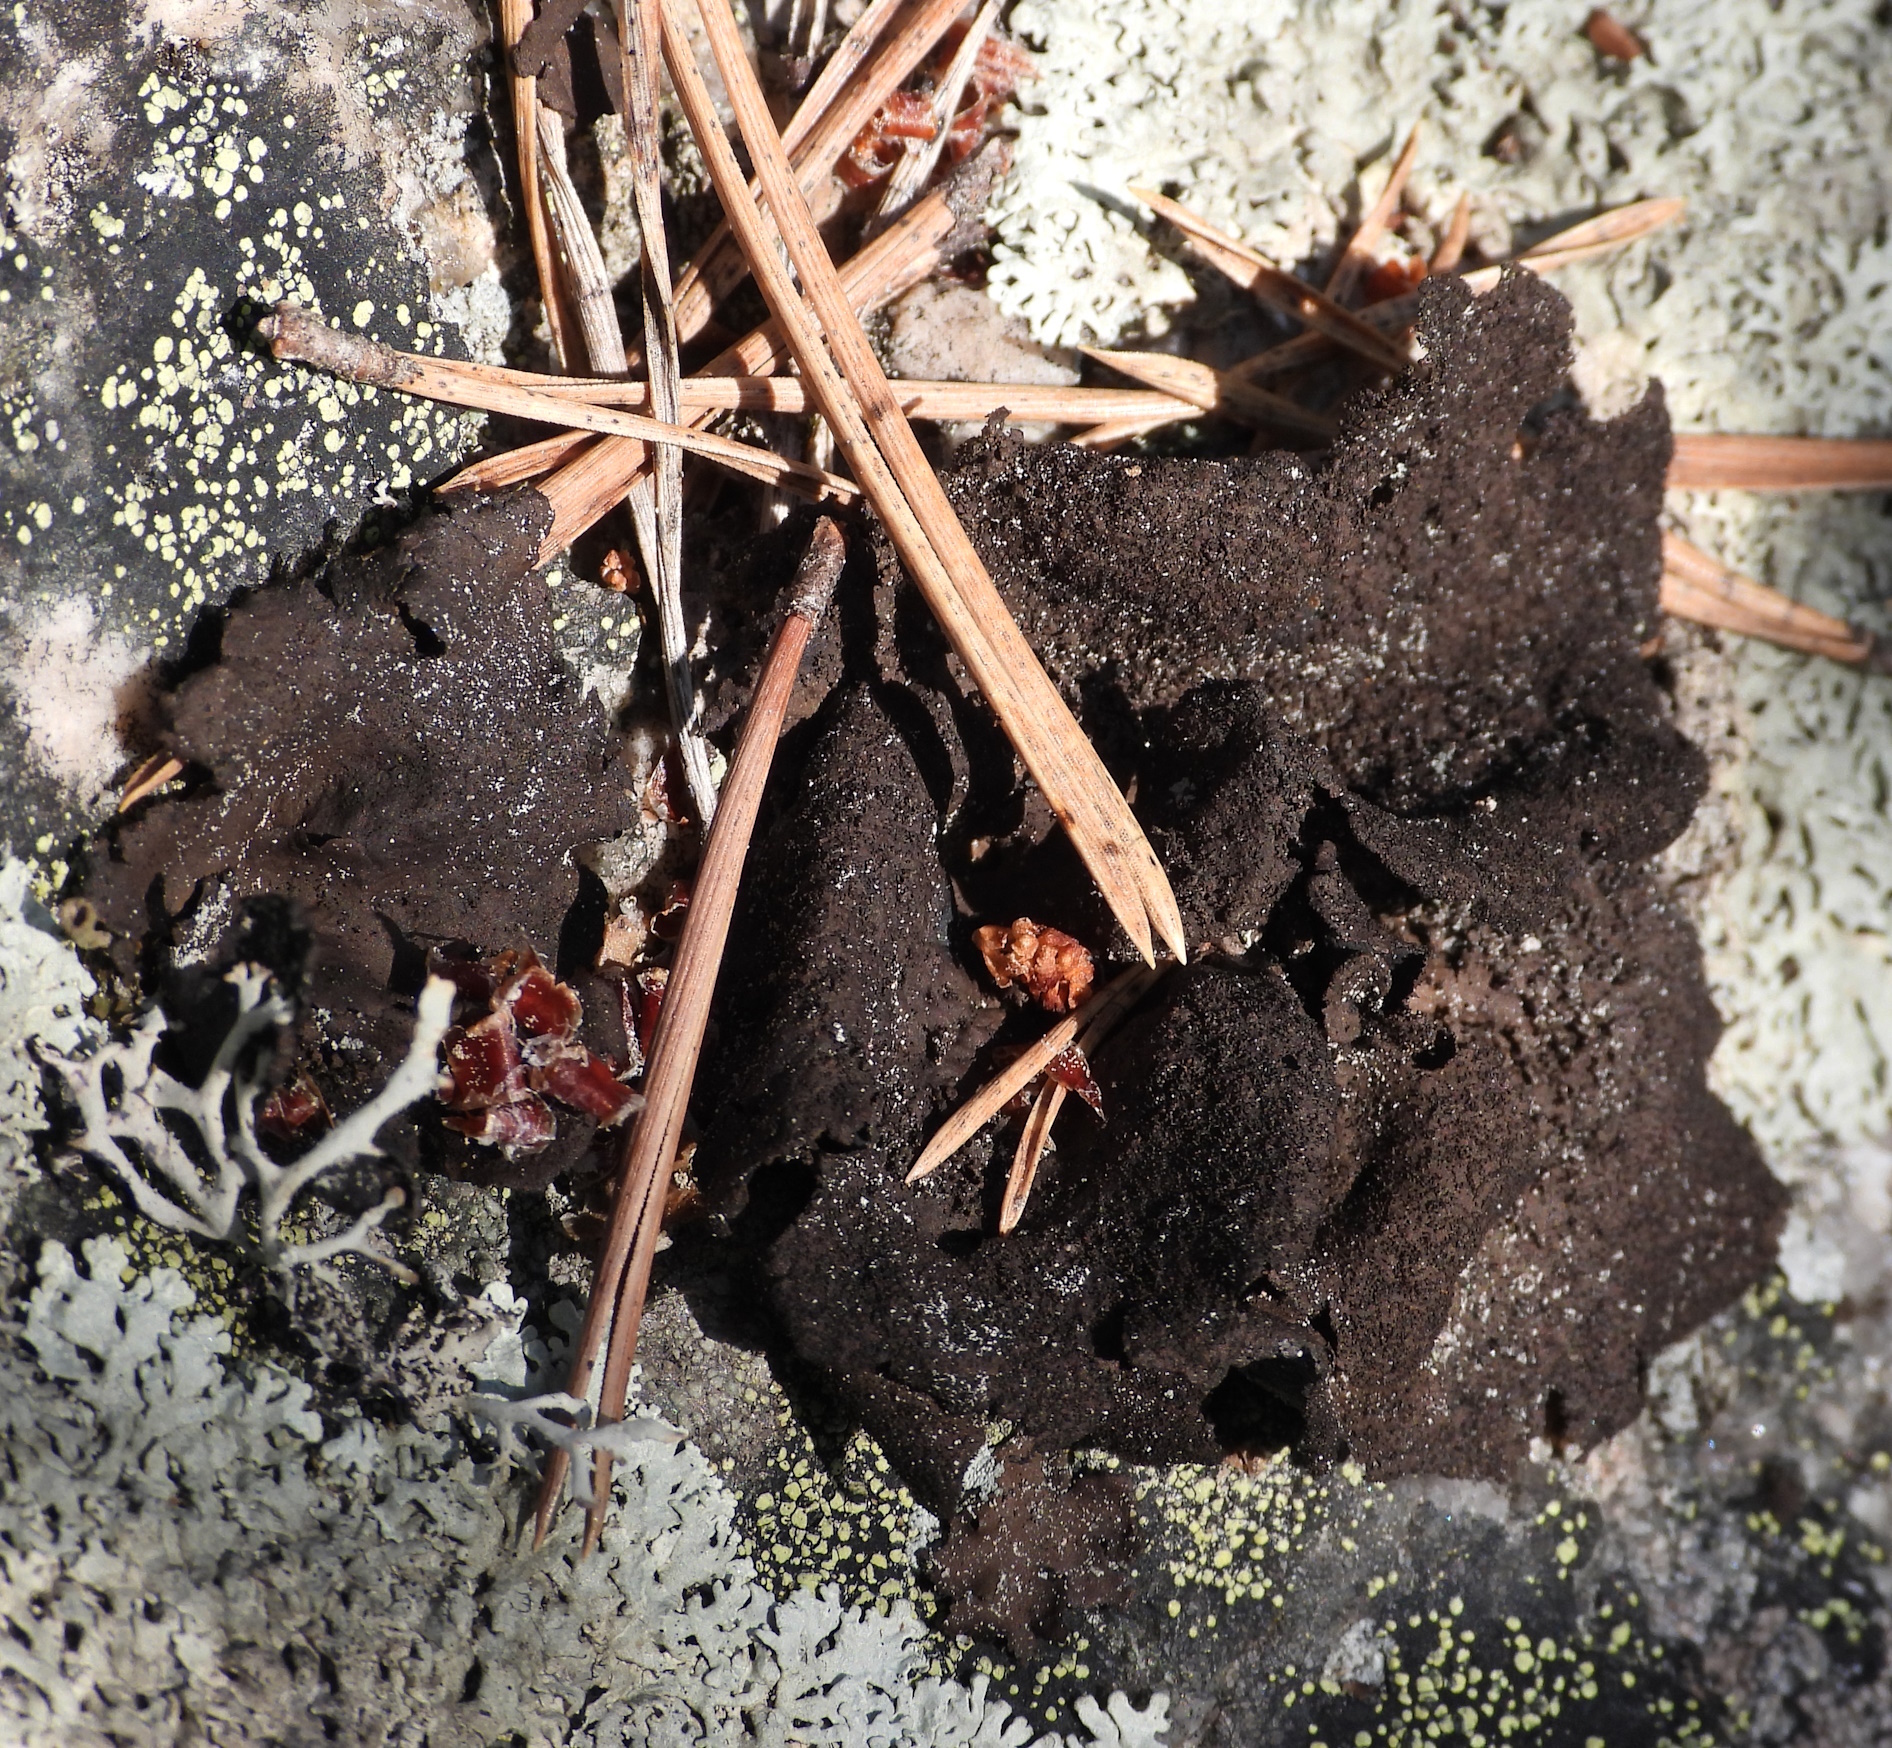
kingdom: Fungi
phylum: Ascomycota
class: Lecanoromycetes
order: Umbilicariales
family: Umbilicariaceae
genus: Umbilicaria
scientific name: Umbilicaria deusta
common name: Peppered rock tripe
